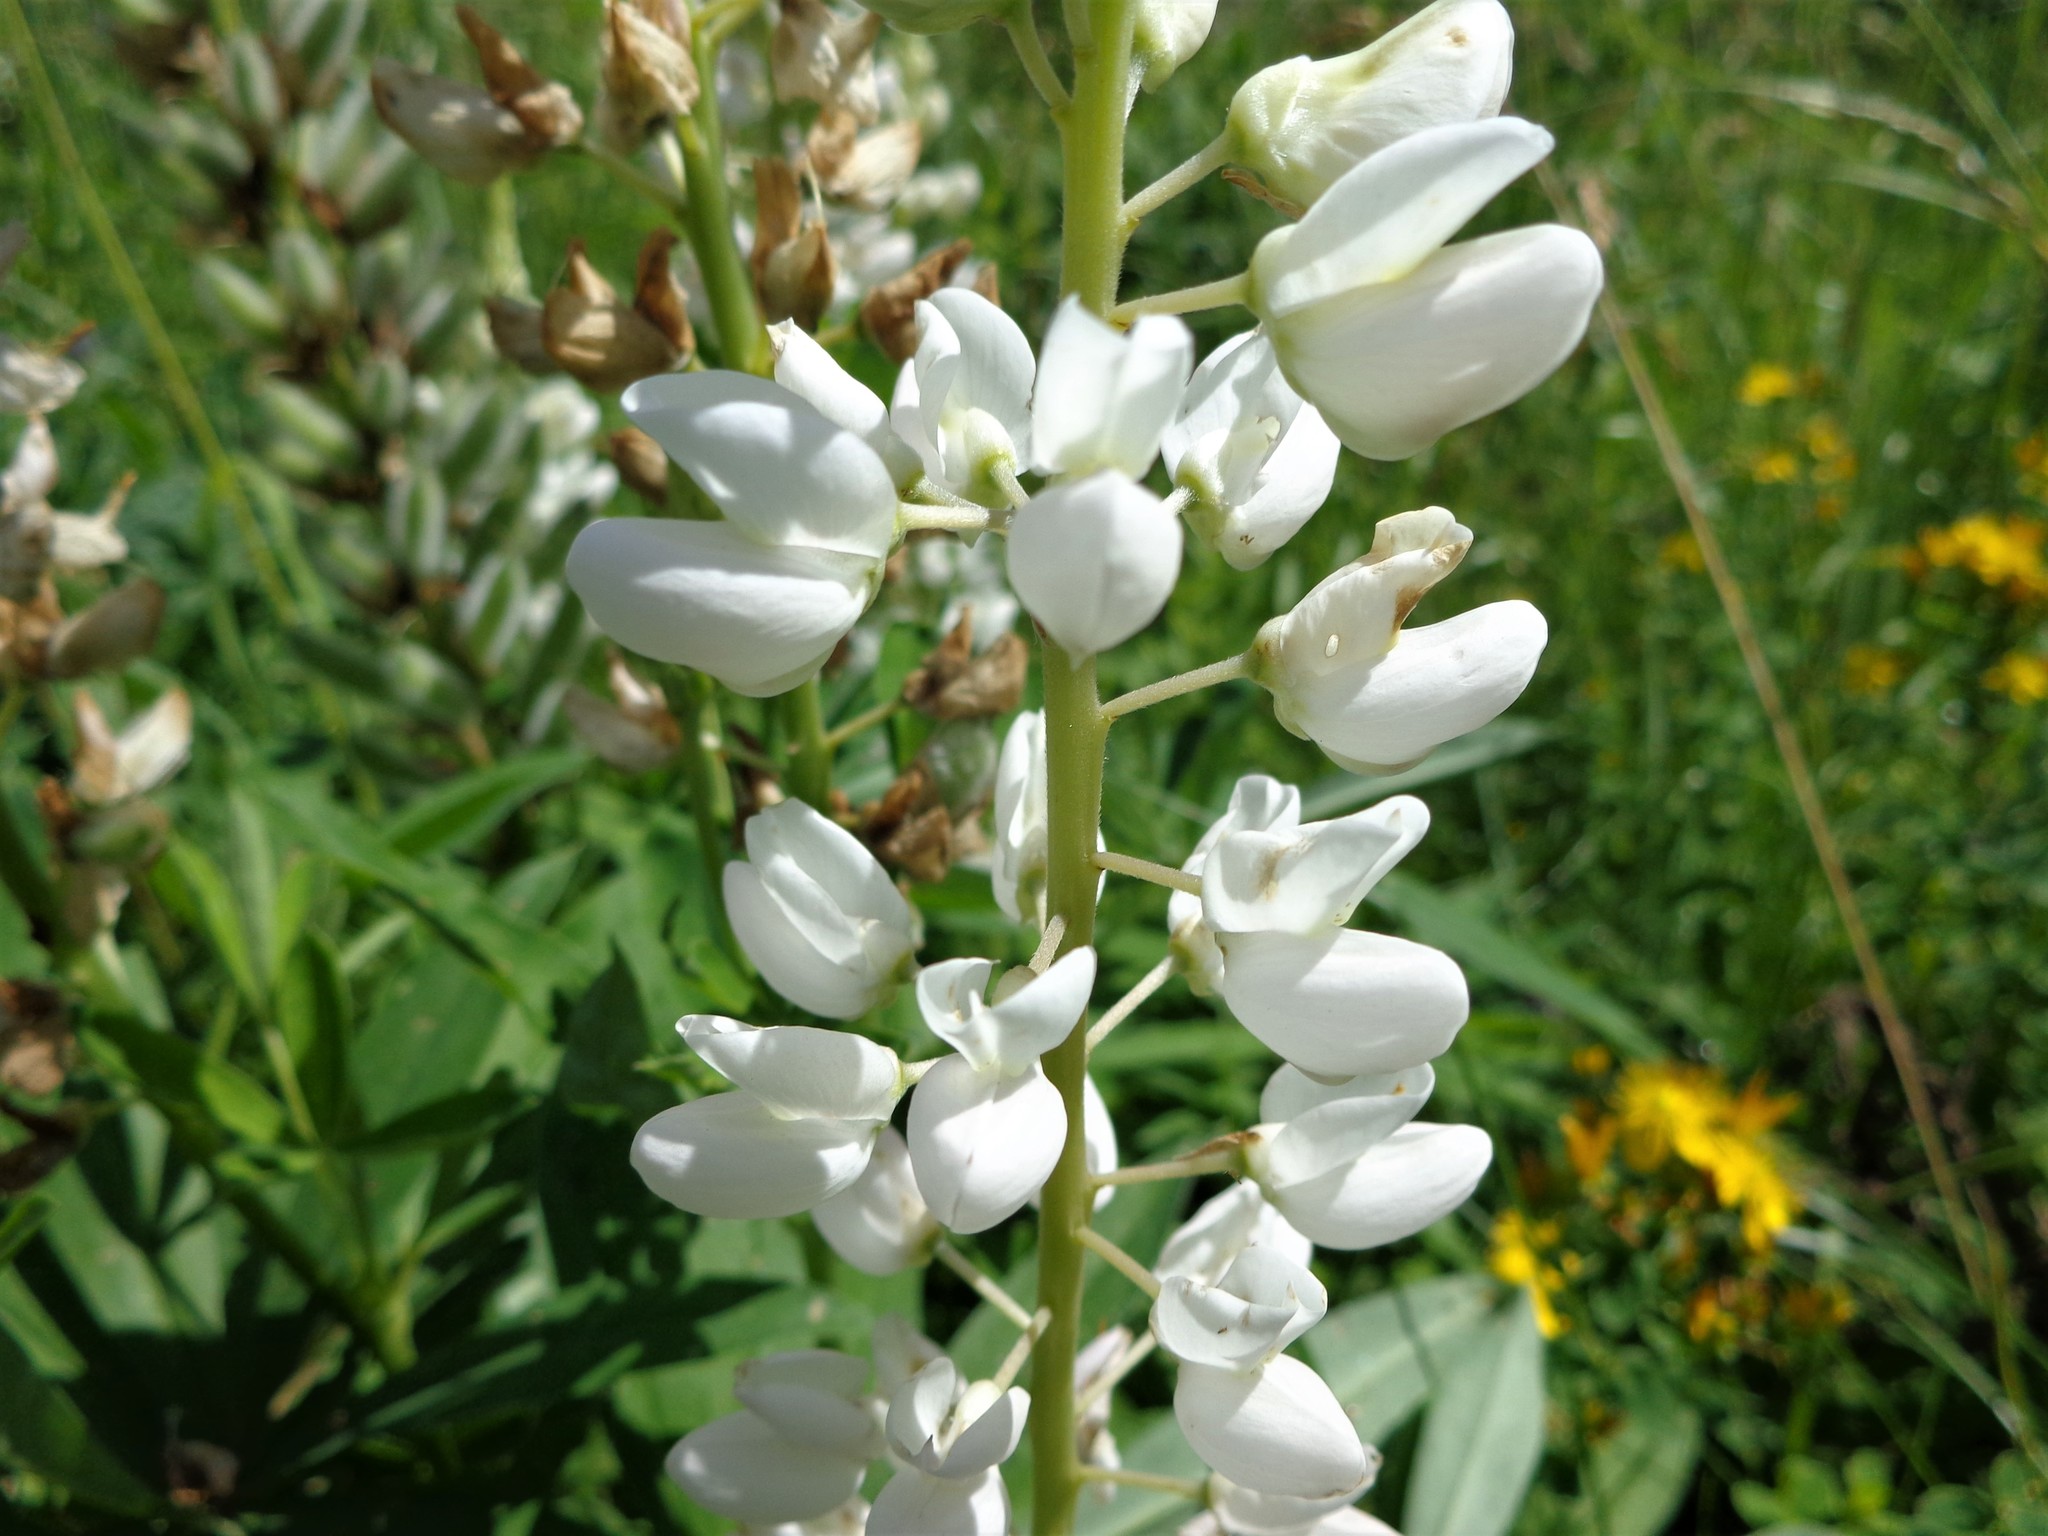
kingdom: Plantae
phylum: Tracheophyta
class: Magnoliopsida
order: Fabales
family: Fabaceae
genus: Lupinus
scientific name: Lupinus polyphyllus
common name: Garden lupin
